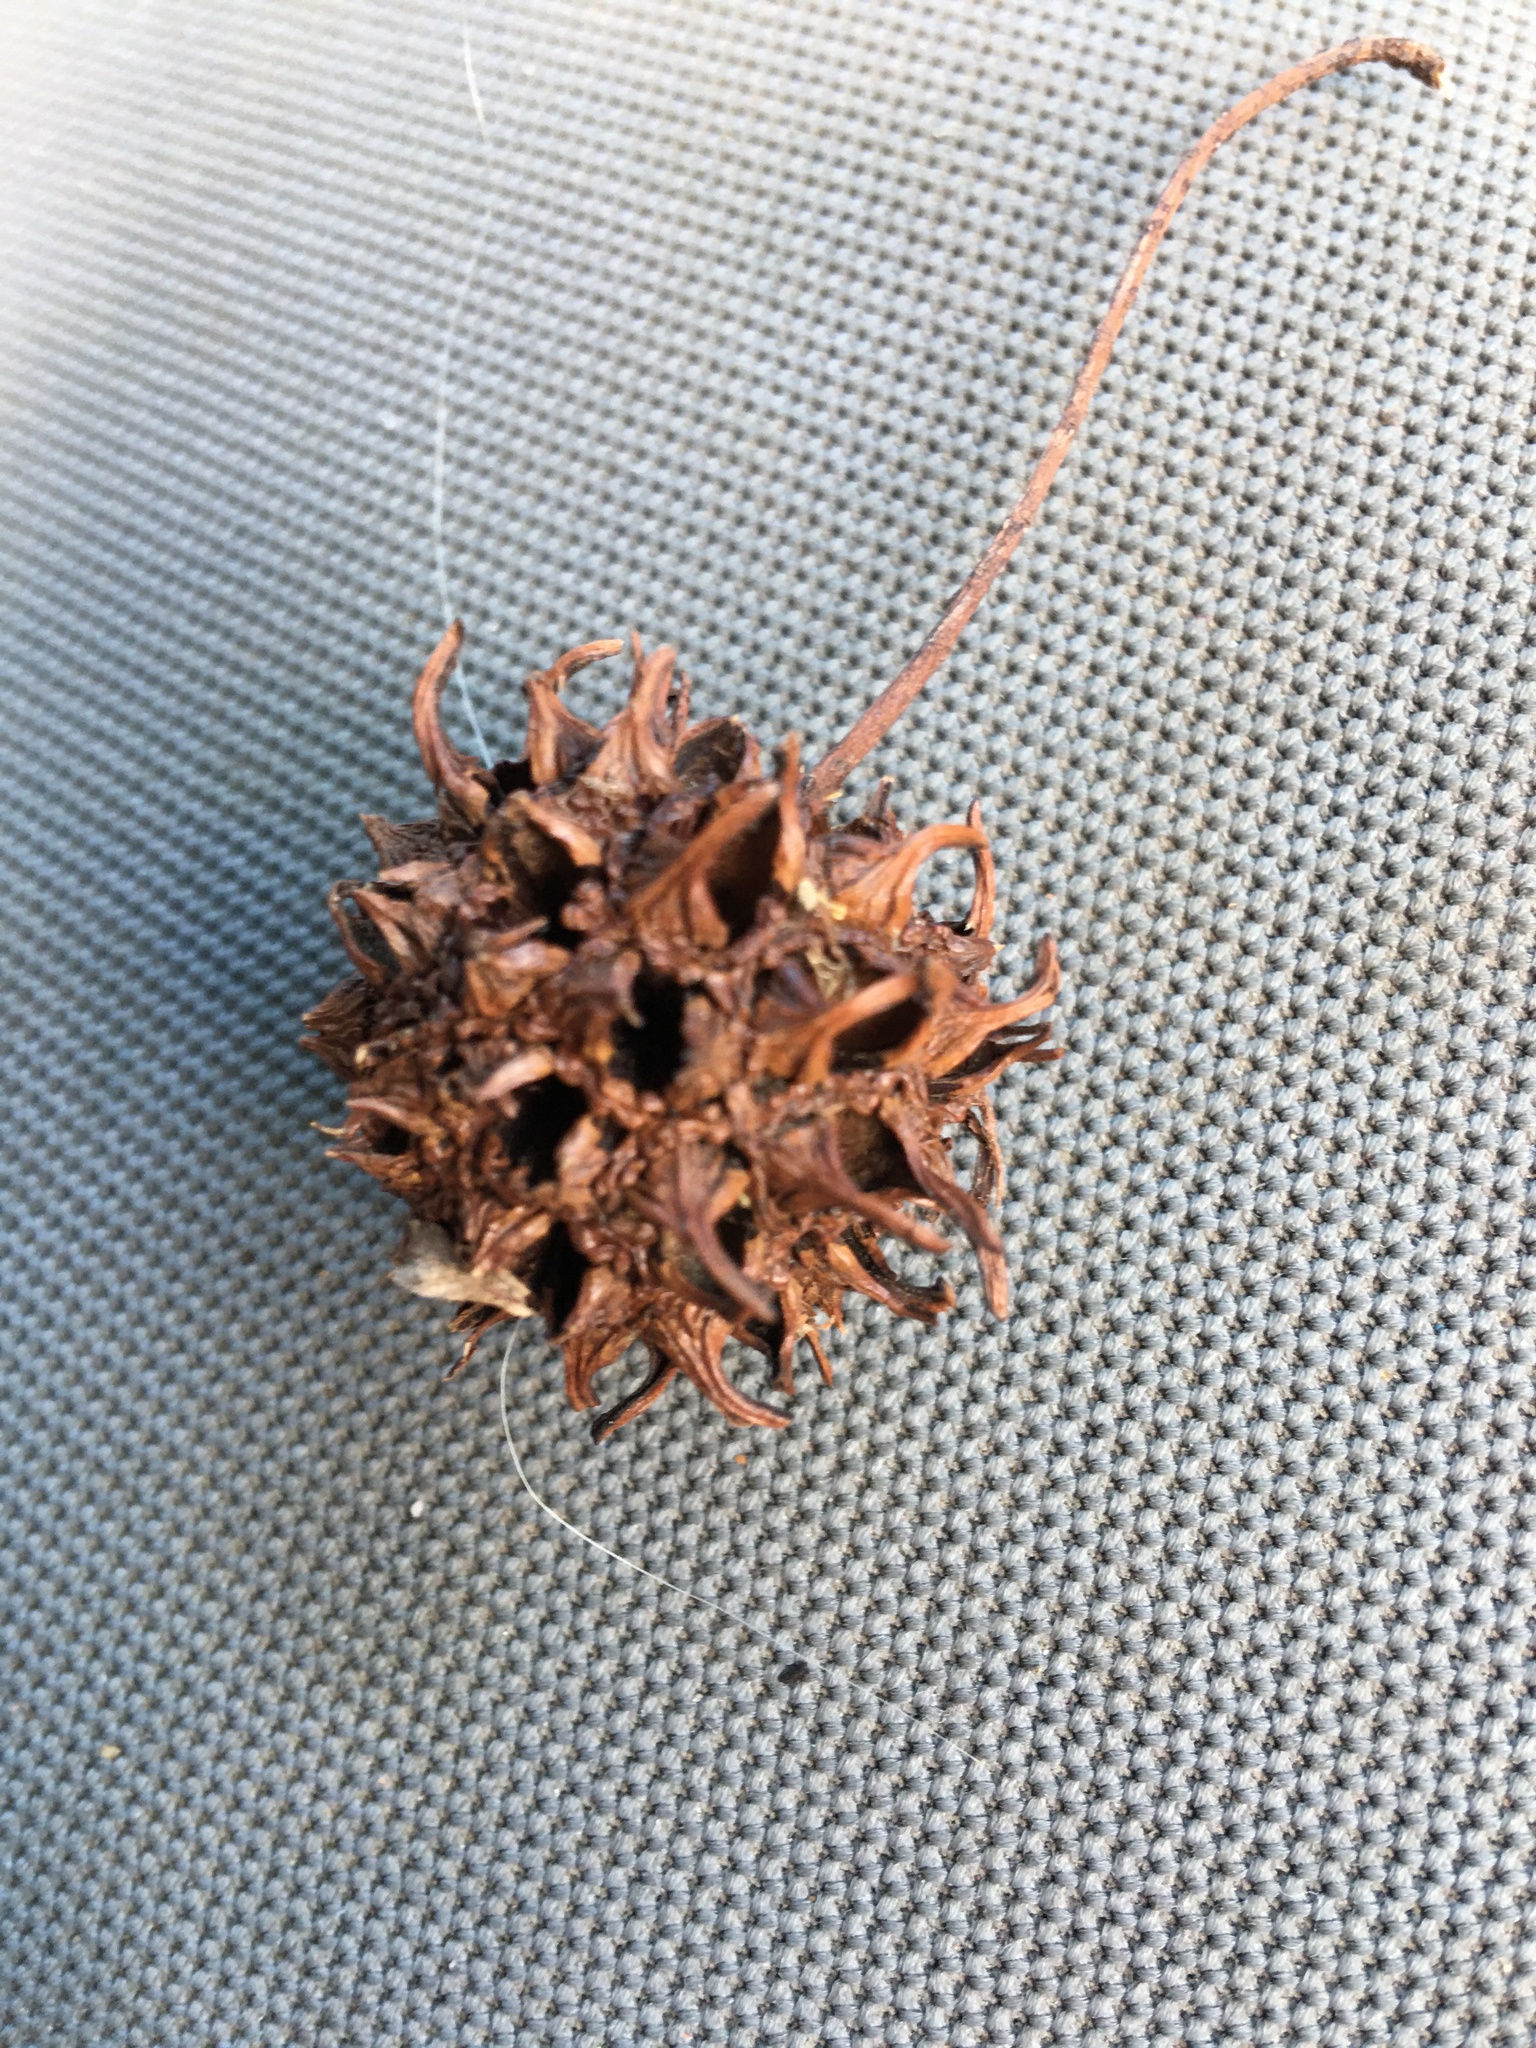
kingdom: Plantae
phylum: Tracheophyta
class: Magnoliopsida
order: Saxifragales
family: Altingiaceae
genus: Liquidambar
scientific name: Liquidambar styraciflua
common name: Sweet gum
